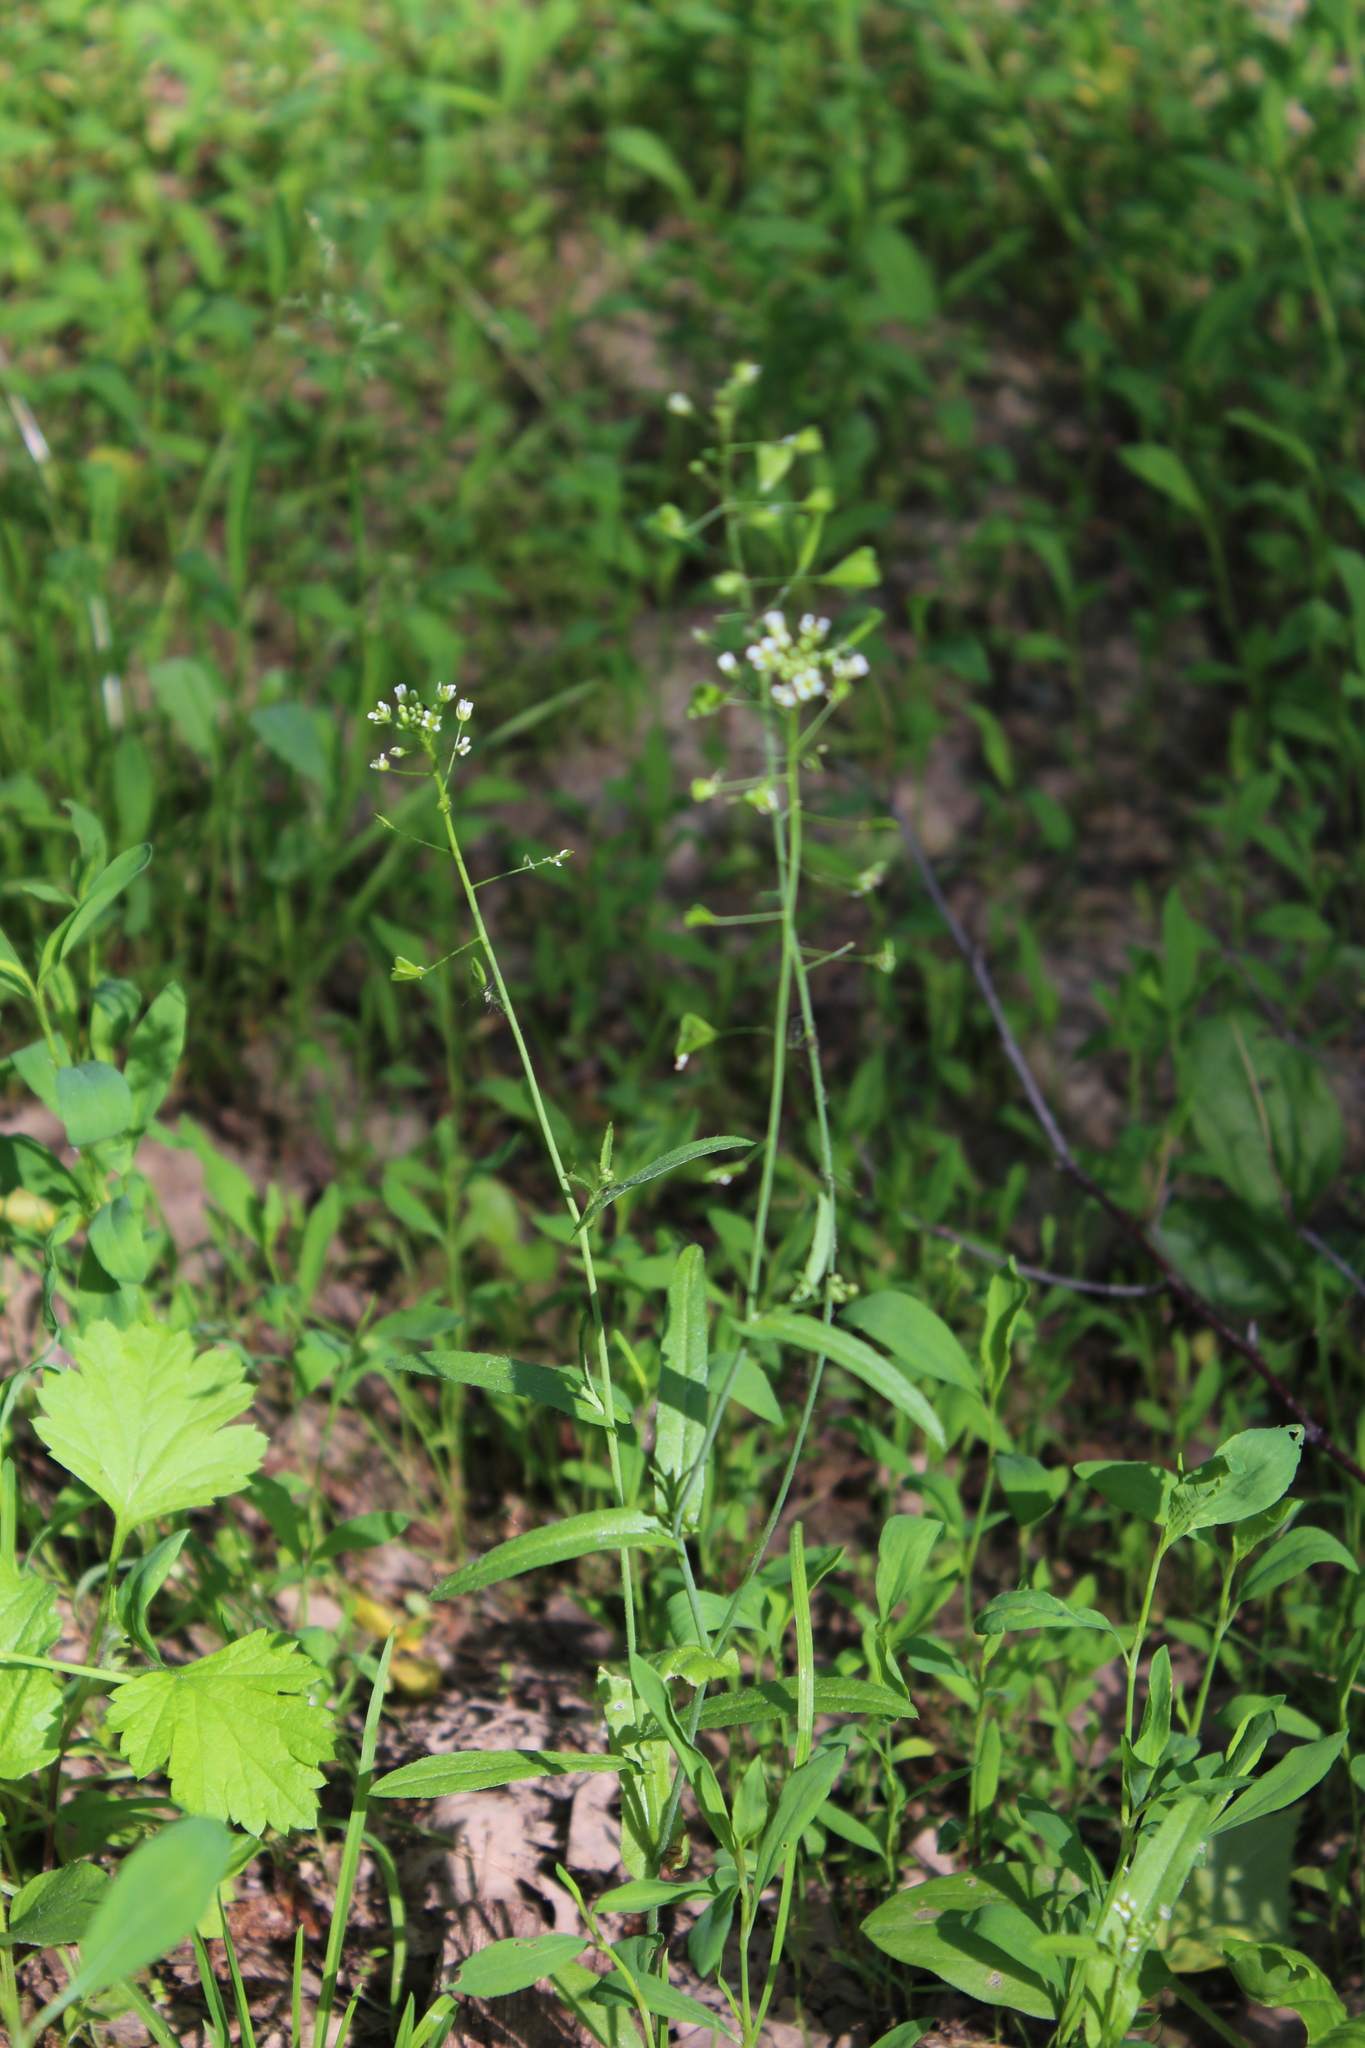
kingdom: Plantae
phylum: Tracheophyta
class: Magnoliopsida
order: Brassicales
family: Brassicaceae
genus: Capsella
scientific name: Capsella bursa-pastoris
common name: Shepherd's purse
